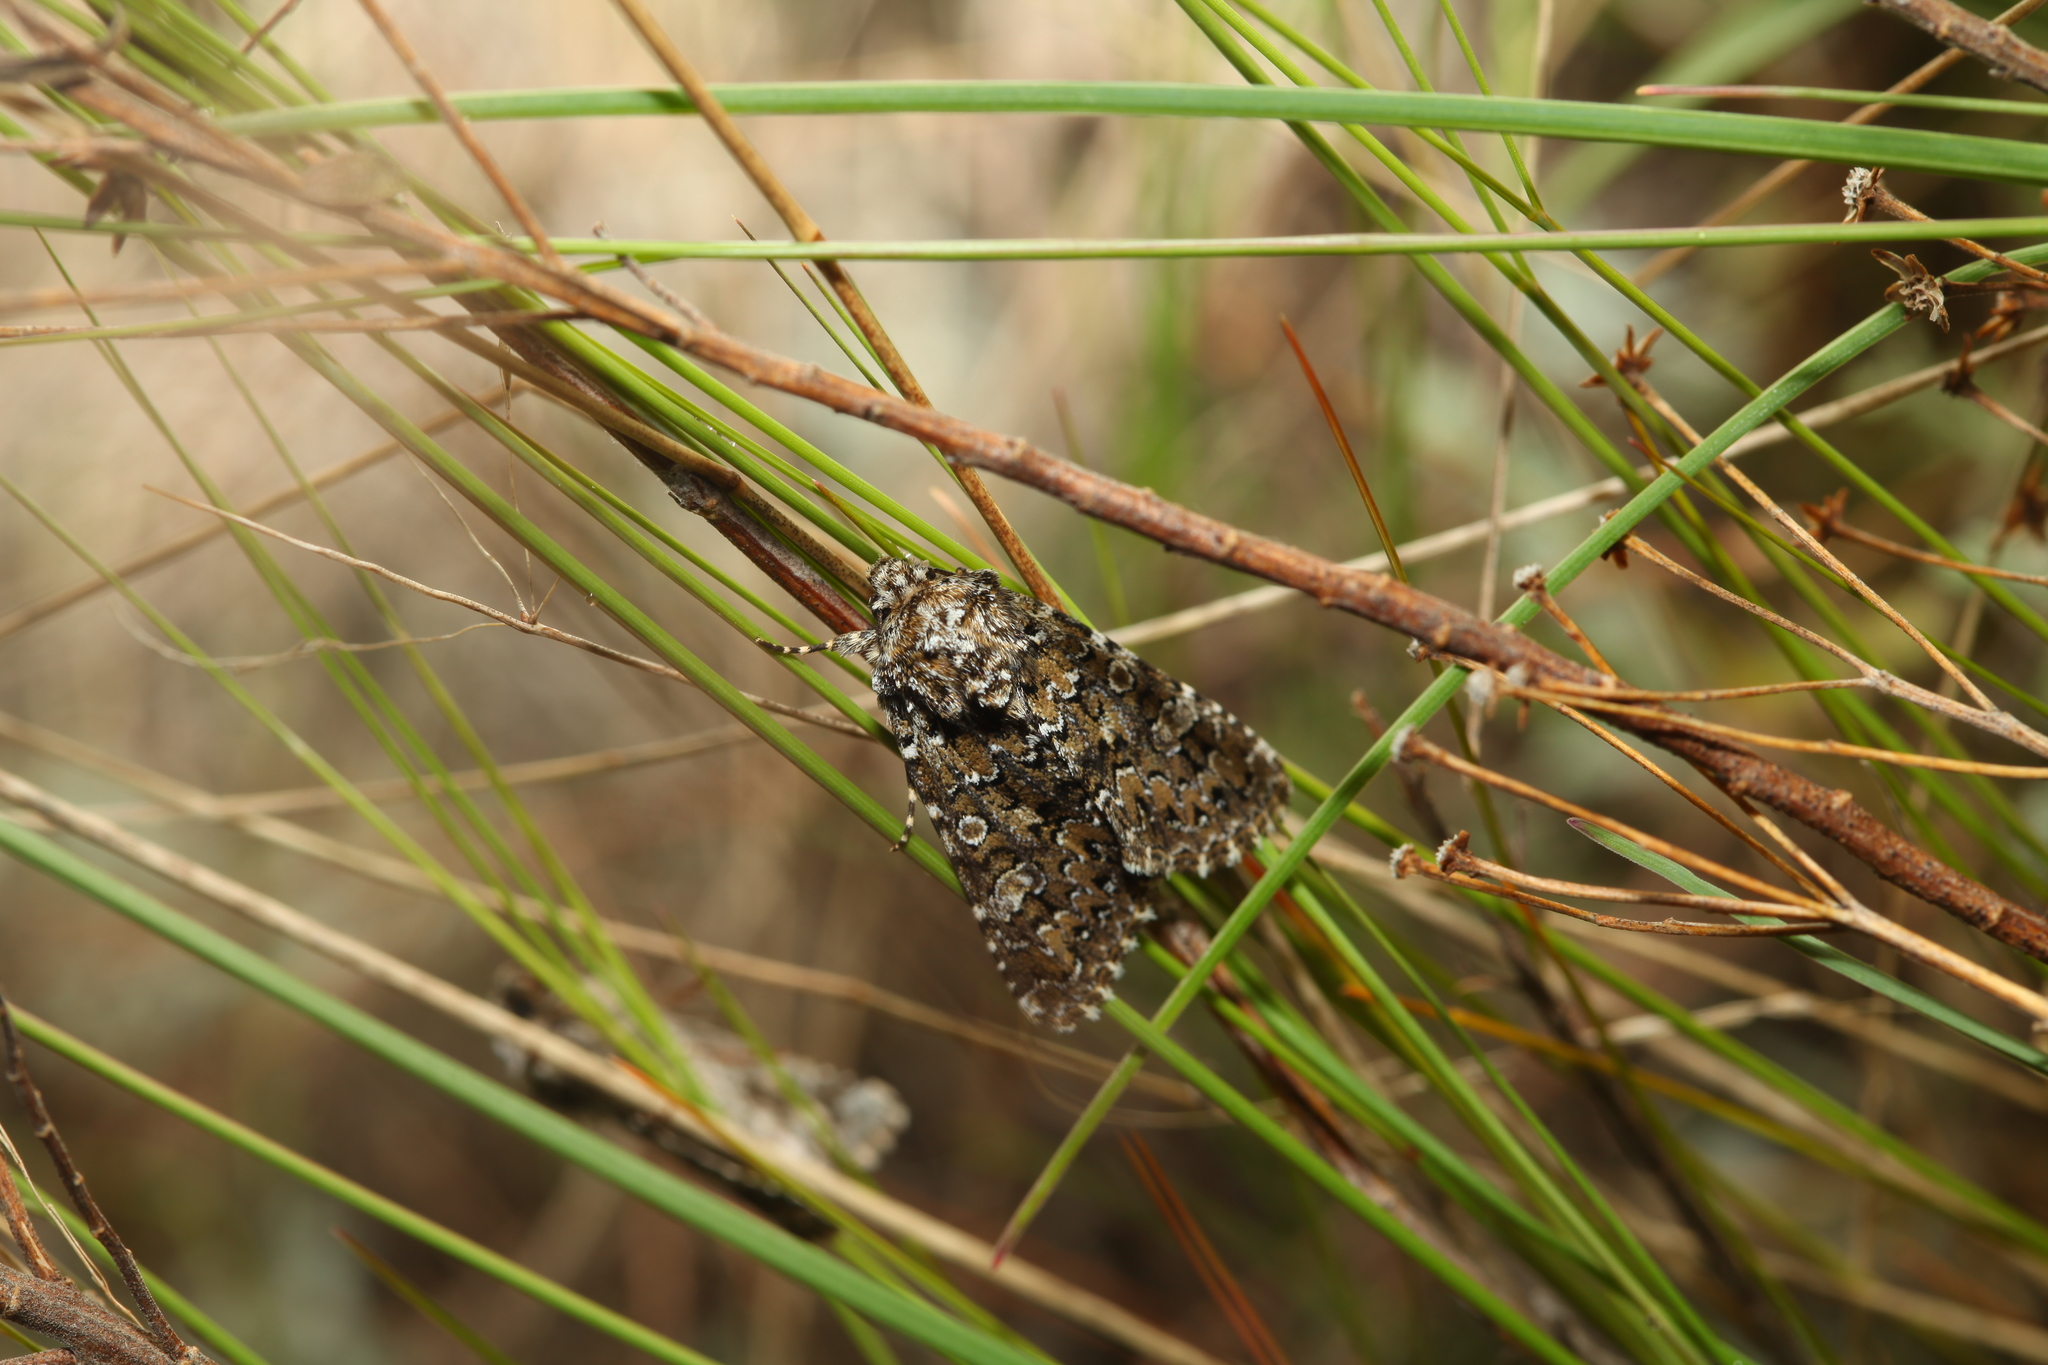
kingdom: Animalia
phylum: Arthropoda
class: Insecta
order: Lepidoptera
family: Noctuidae
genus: Hadena
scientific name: Hadena magnolii
